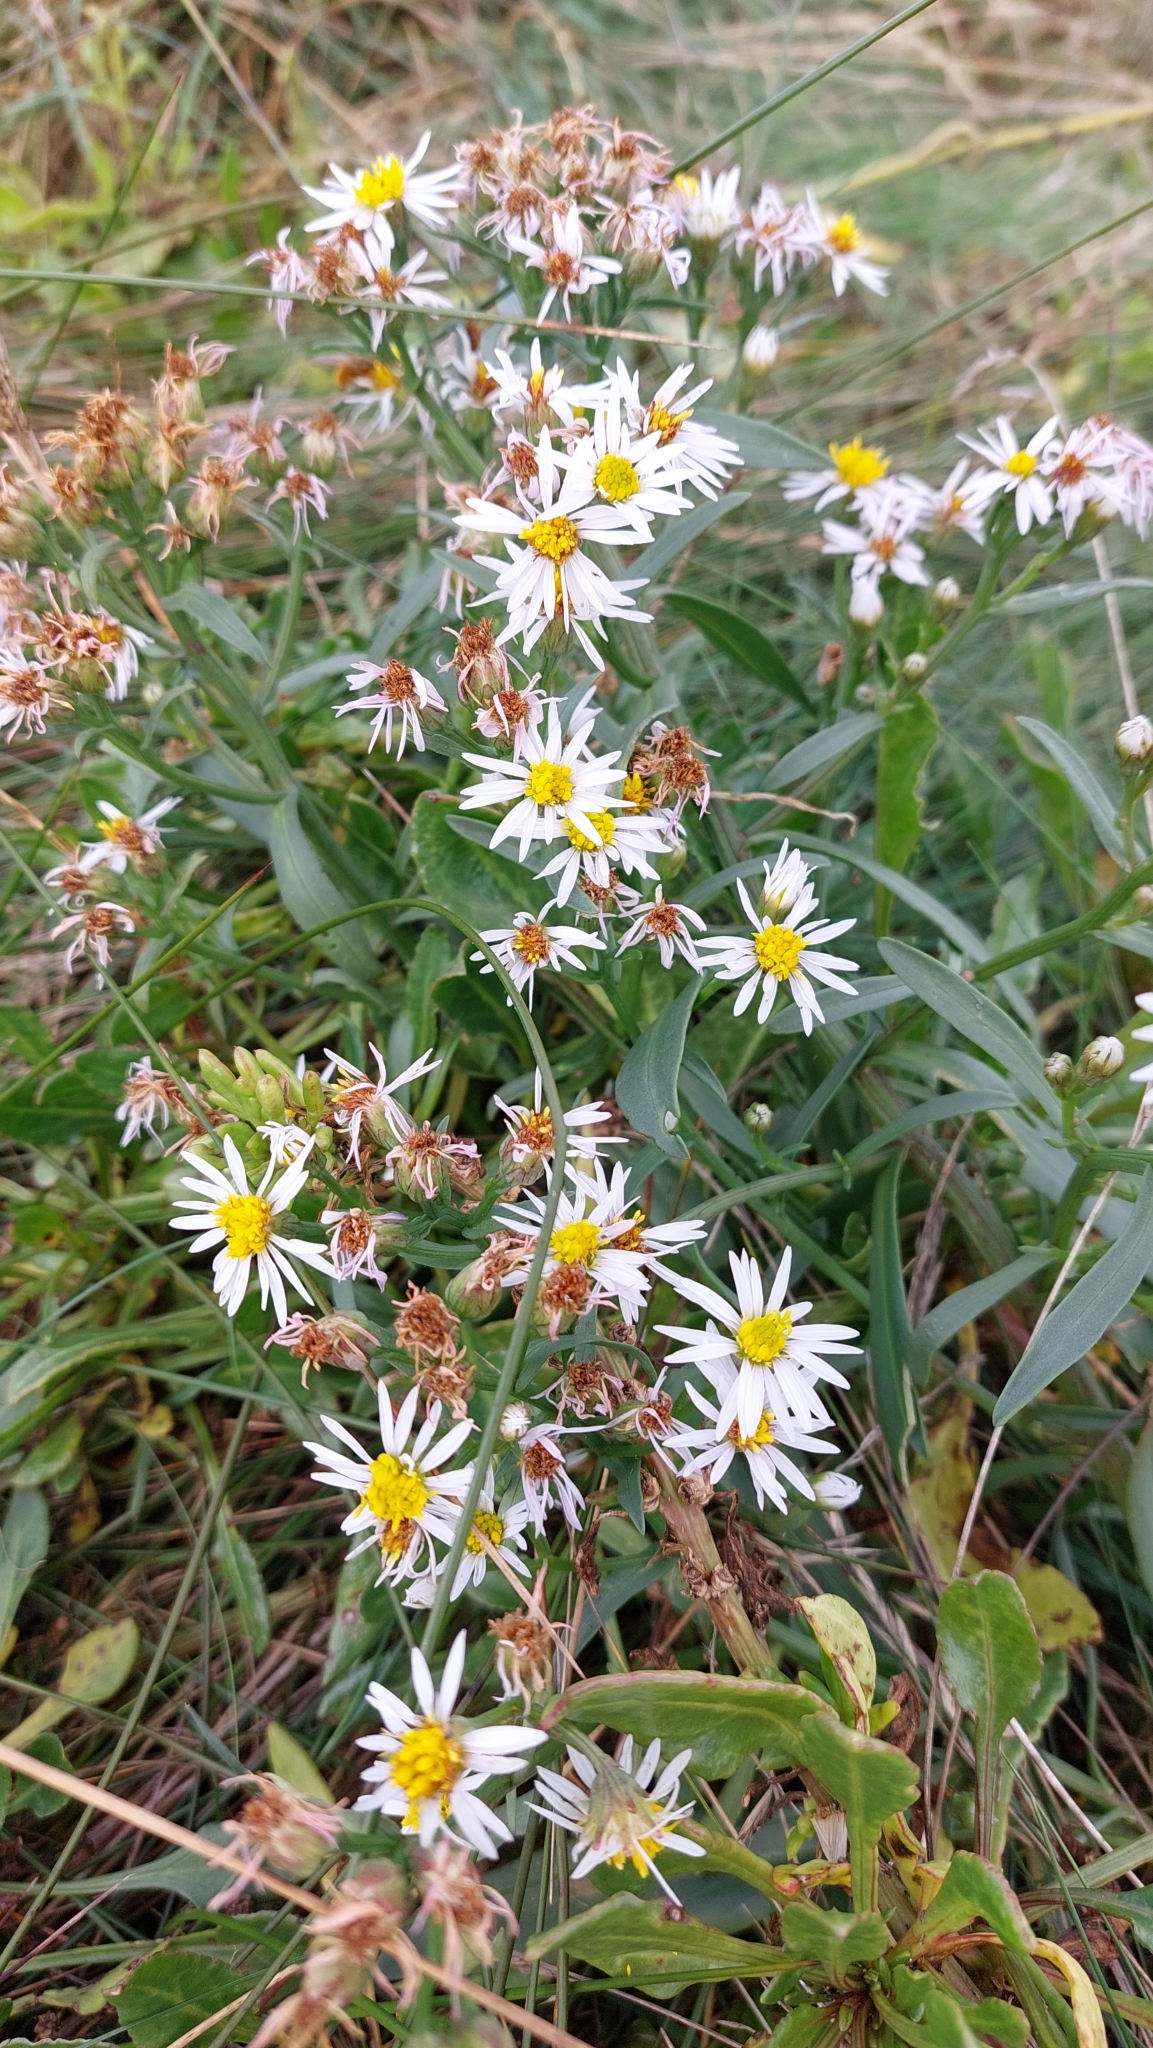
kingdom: Plantae
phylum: Tracheophyta
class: Magnoliopsida
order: Asterales
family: Asteraceae
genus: Tripolium
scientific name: Tripolium pannonicum
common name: Sea aster
